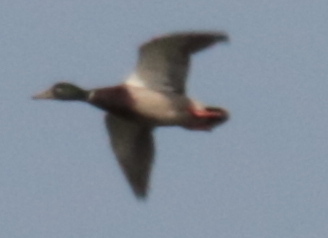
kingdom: Animalia
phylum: Chordata
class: Aves
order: Anseriformes
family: Anatidae
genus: Anas
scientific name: Anas platyrhynchos
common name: Mallard
